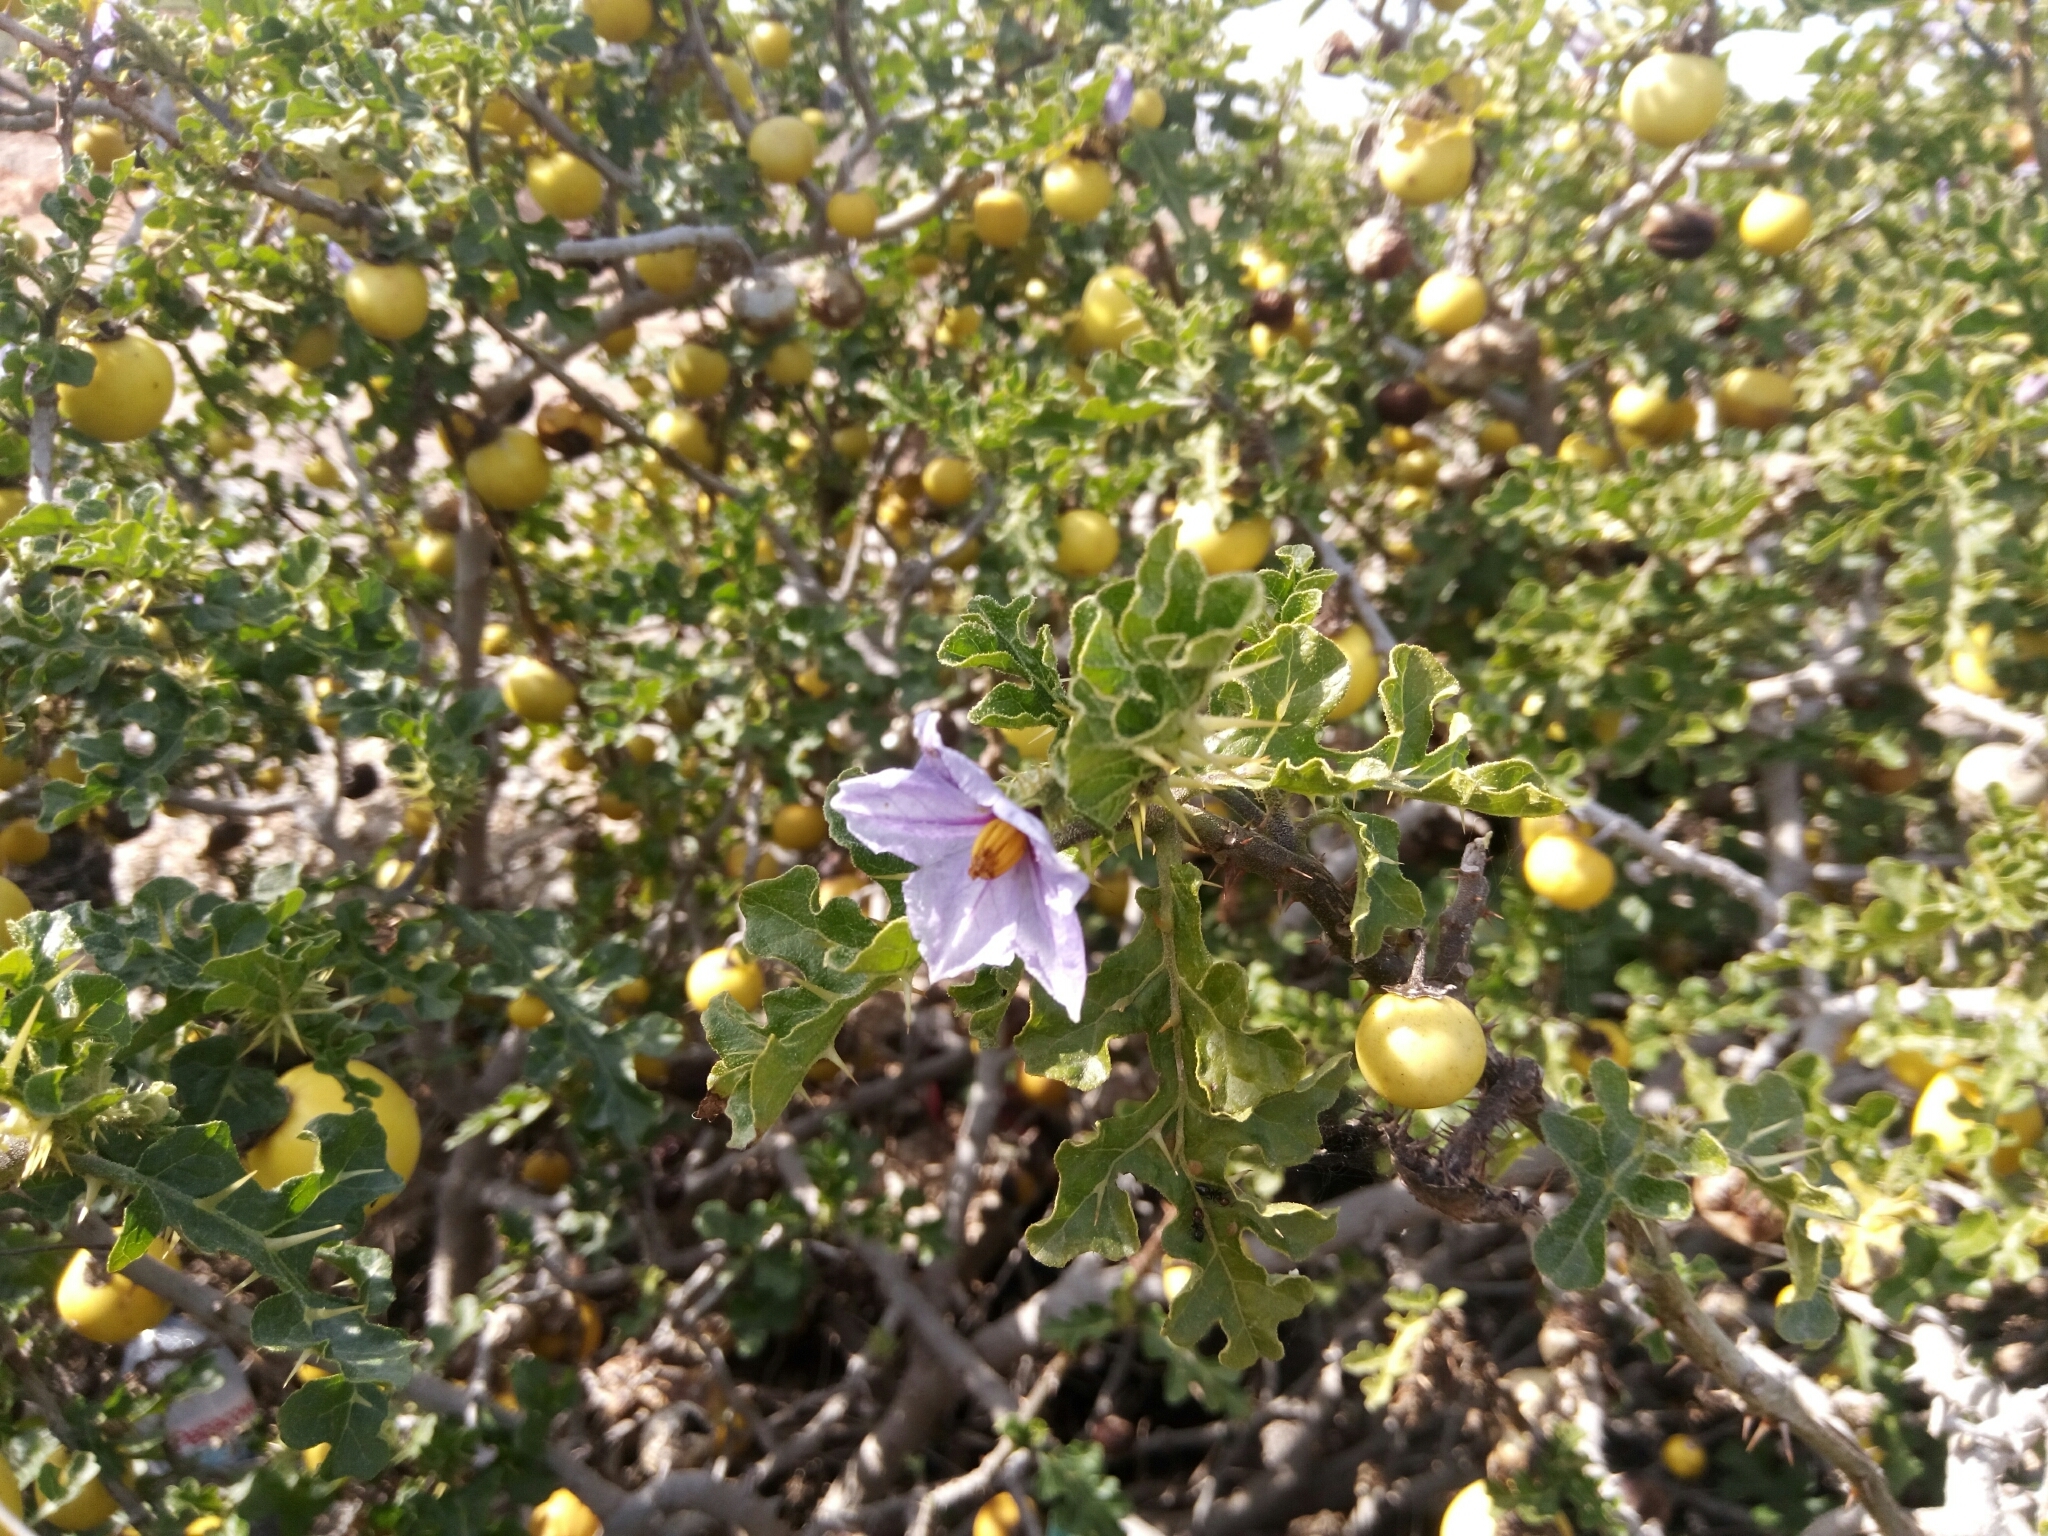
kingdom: Plantae
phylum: Tracheophyta
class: Magnoliopsida
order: Solanales
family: Solanaceae
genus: Solanum
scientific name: Solanum linnaeanum
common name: Nightshade
